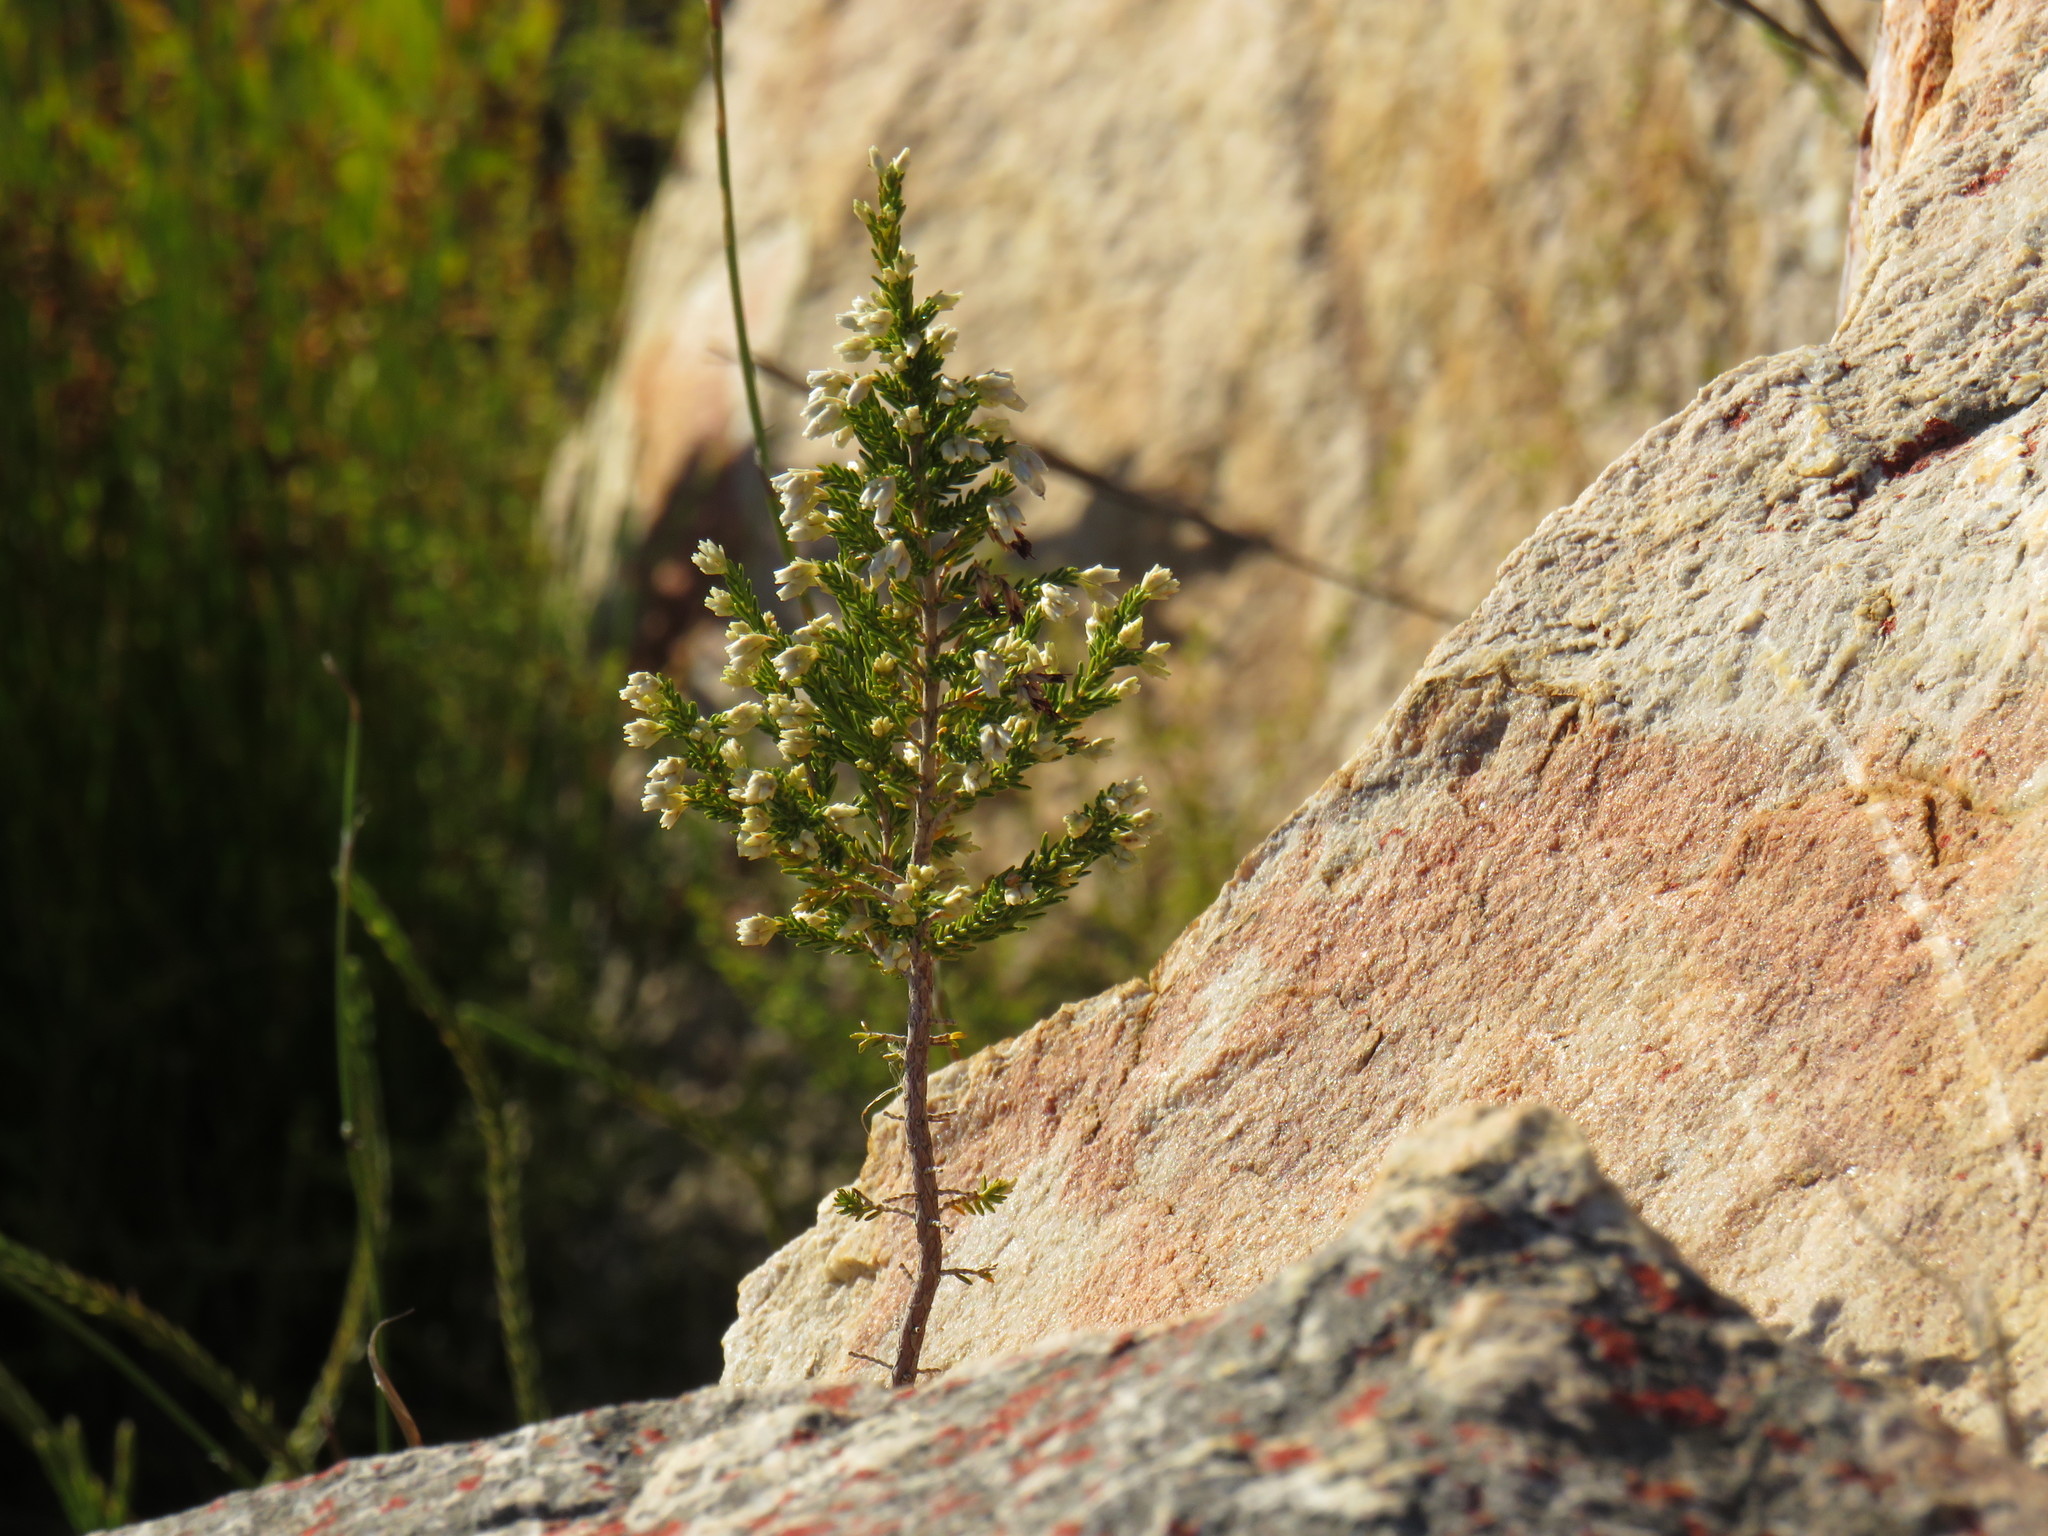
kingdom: Plantae
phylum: Tracheophyta
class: Magnoliopsida
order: Ericales
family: Ericaceae
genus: Erica
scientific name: Erica imbricata
